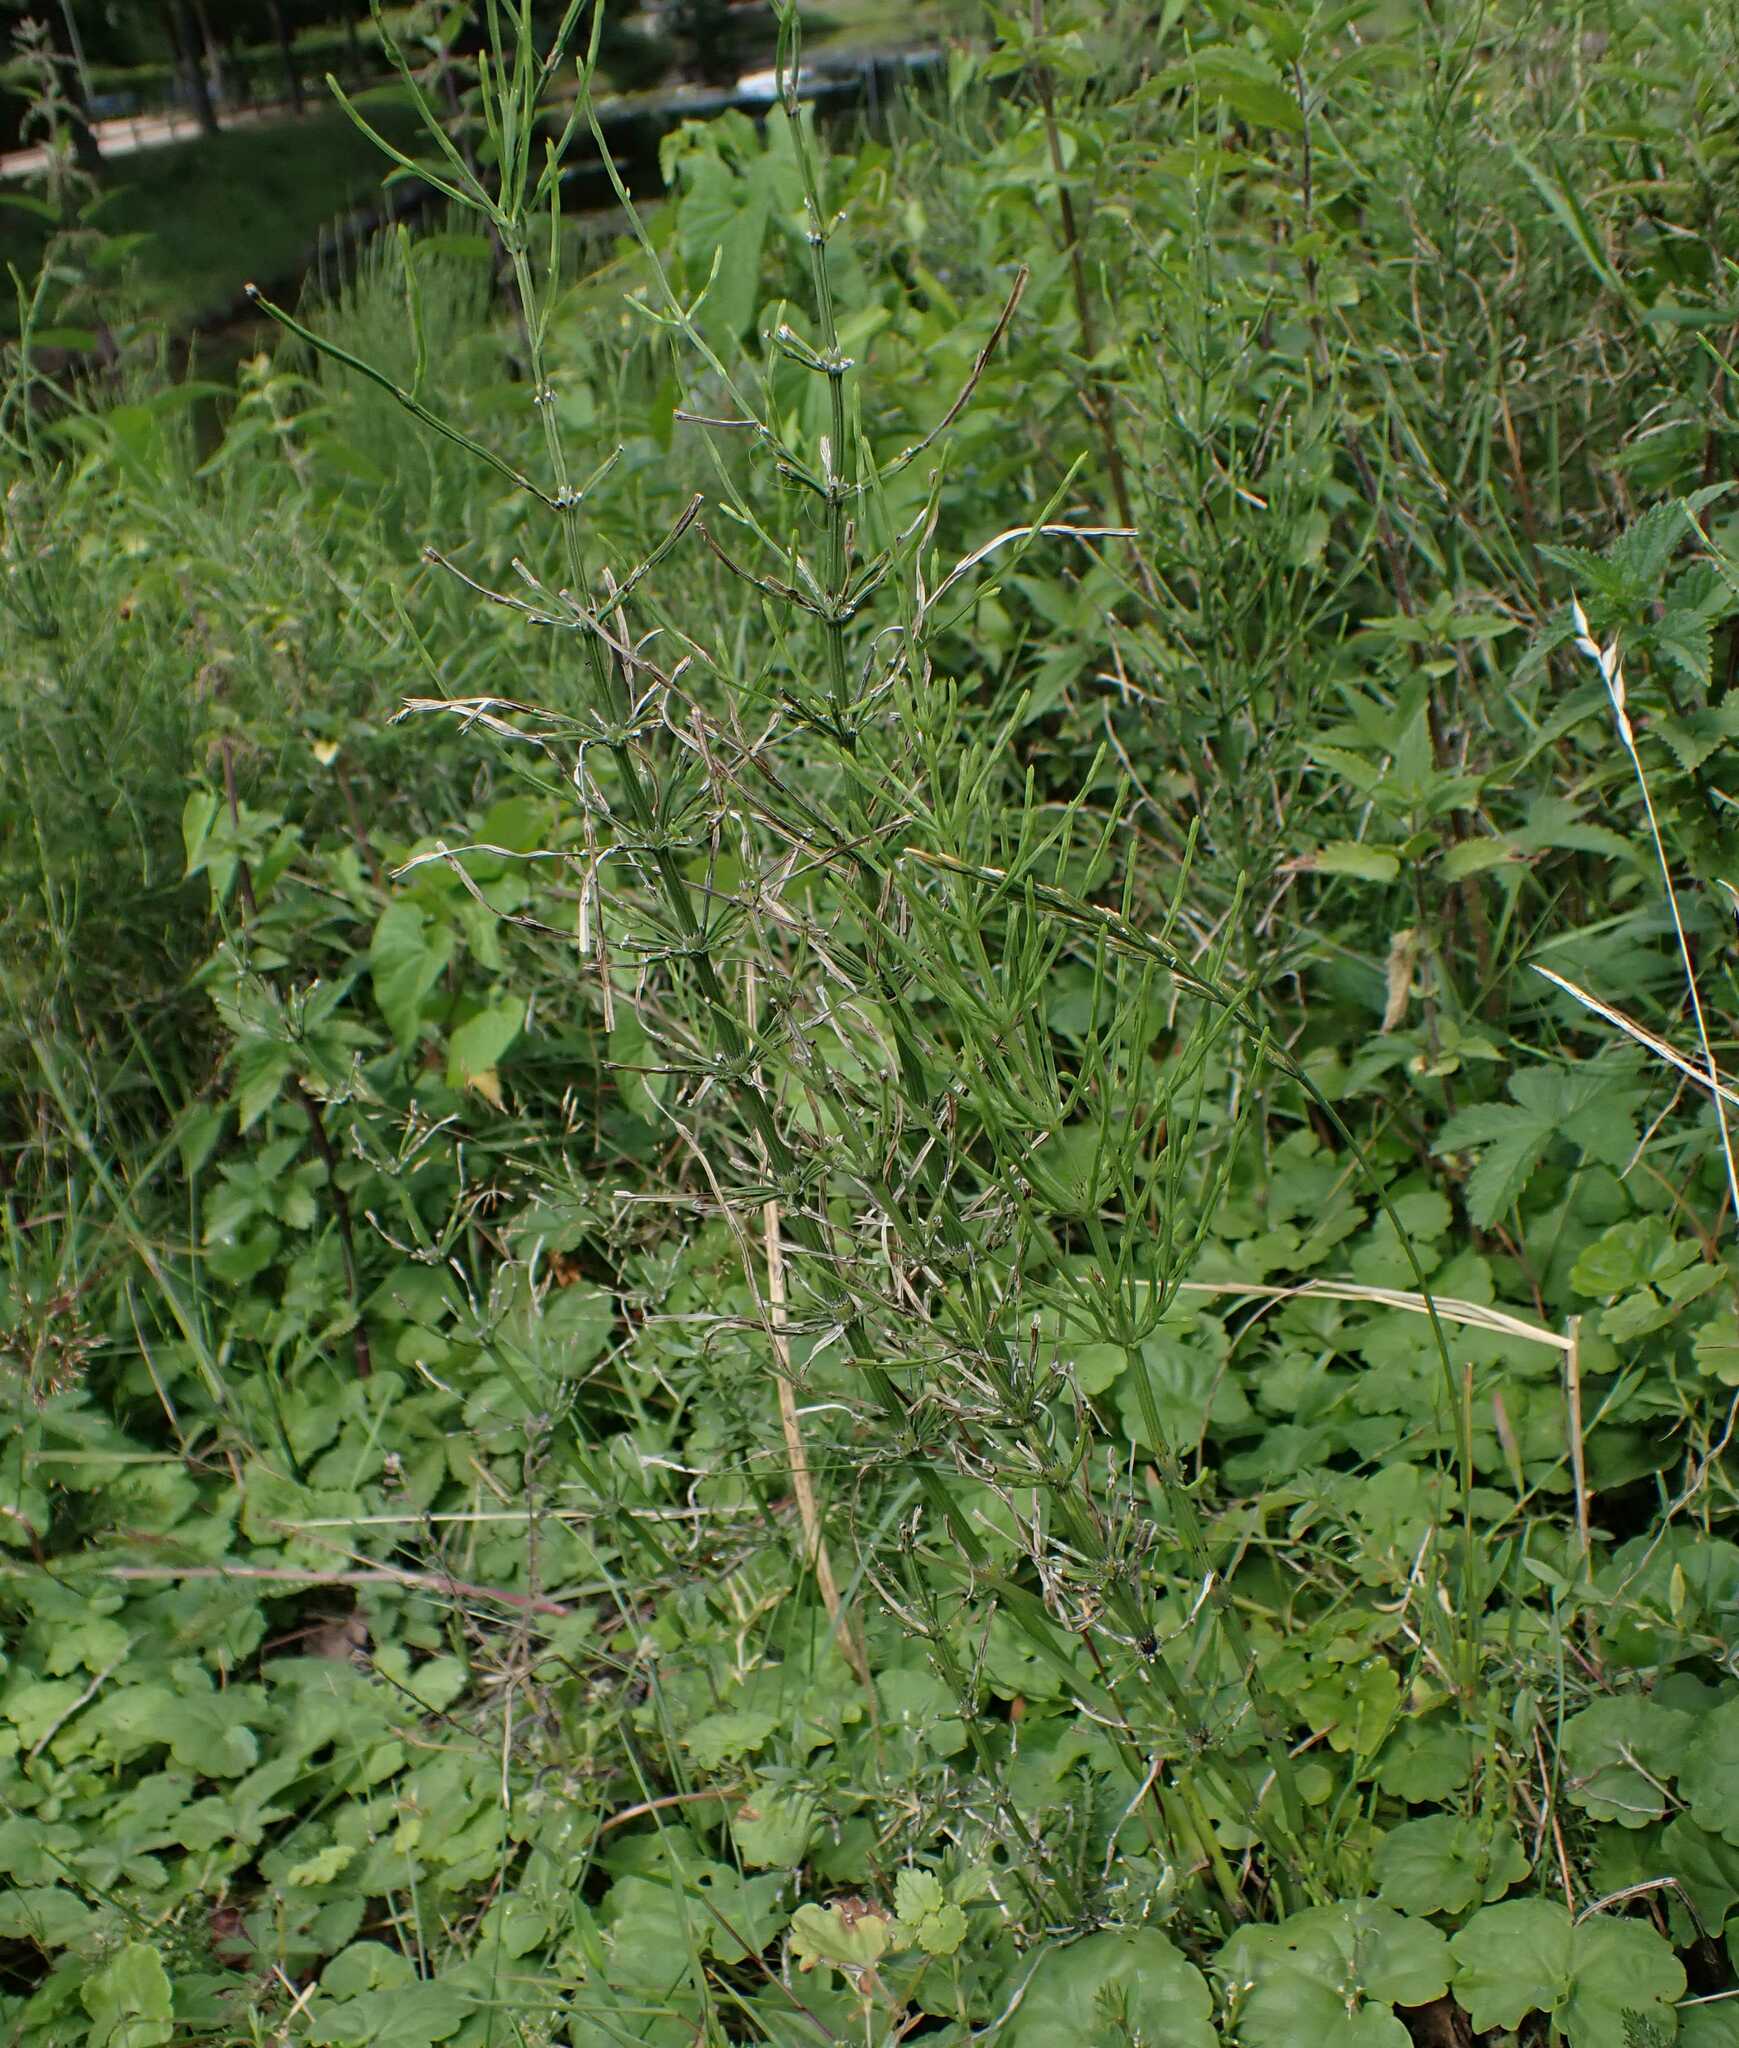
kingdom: Plantae
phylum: Tracheophyta
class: Polypodiopsida
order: Equisetales
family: Equisetaceae
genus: Equisetum
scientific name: Equisetum arvense
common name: Field horsetail
